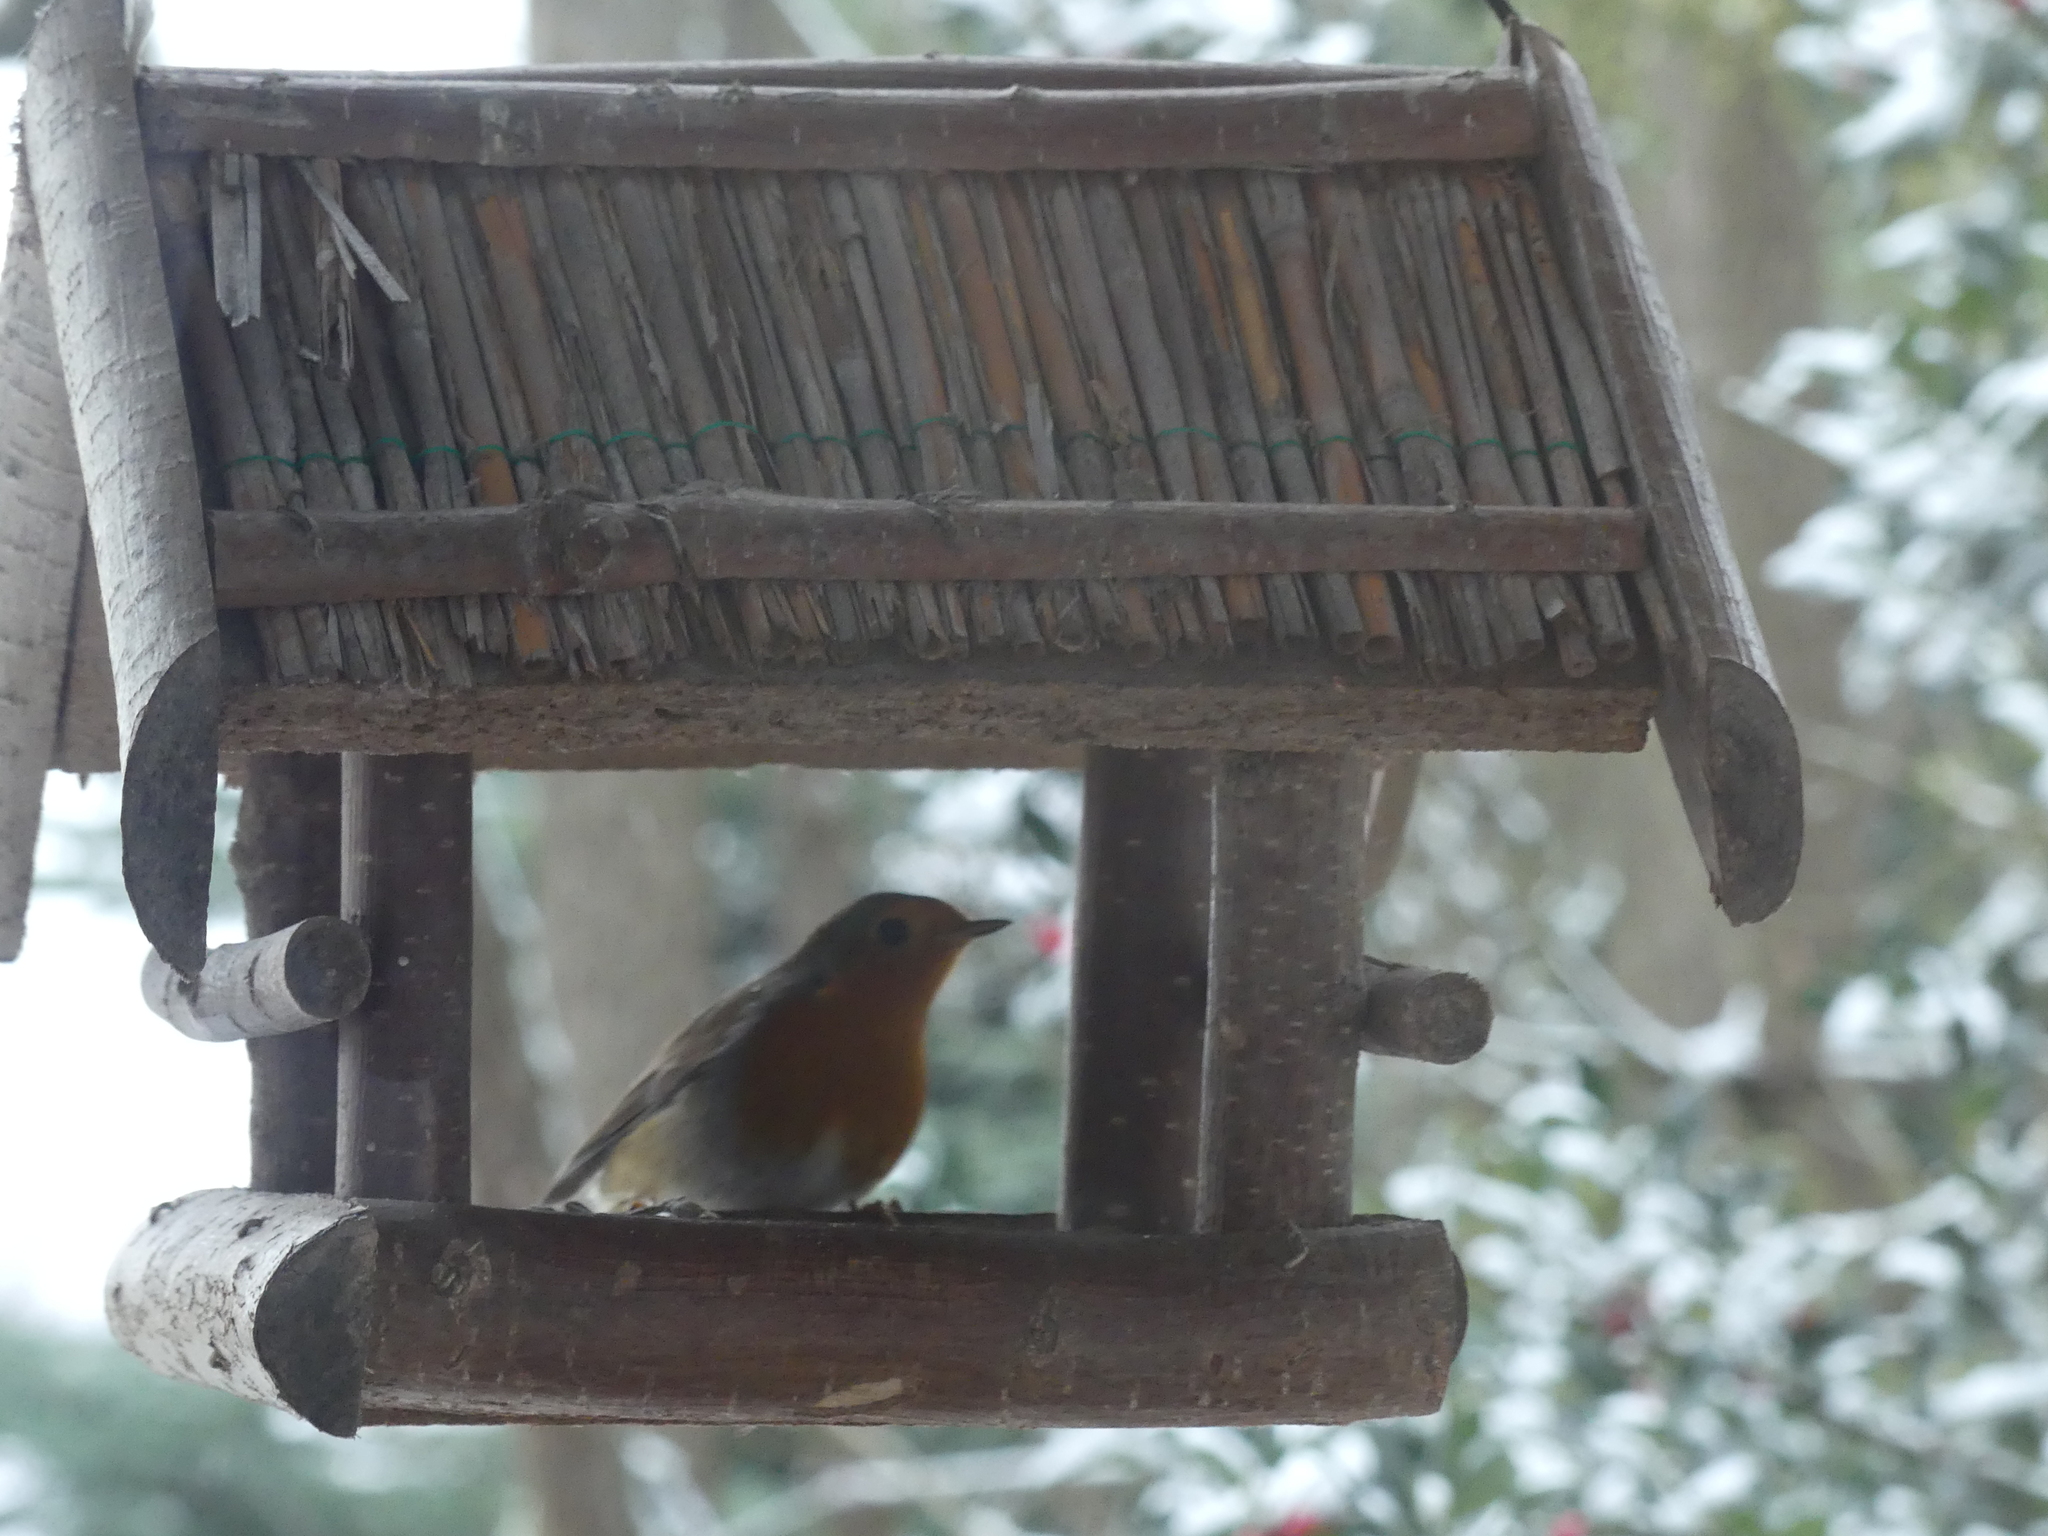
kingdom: Animalia
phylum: Chordata
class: Aves
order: Passeriformes
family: Muscicapidae
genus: Erithacus
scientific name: Erithacus rubecula
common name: European robin
